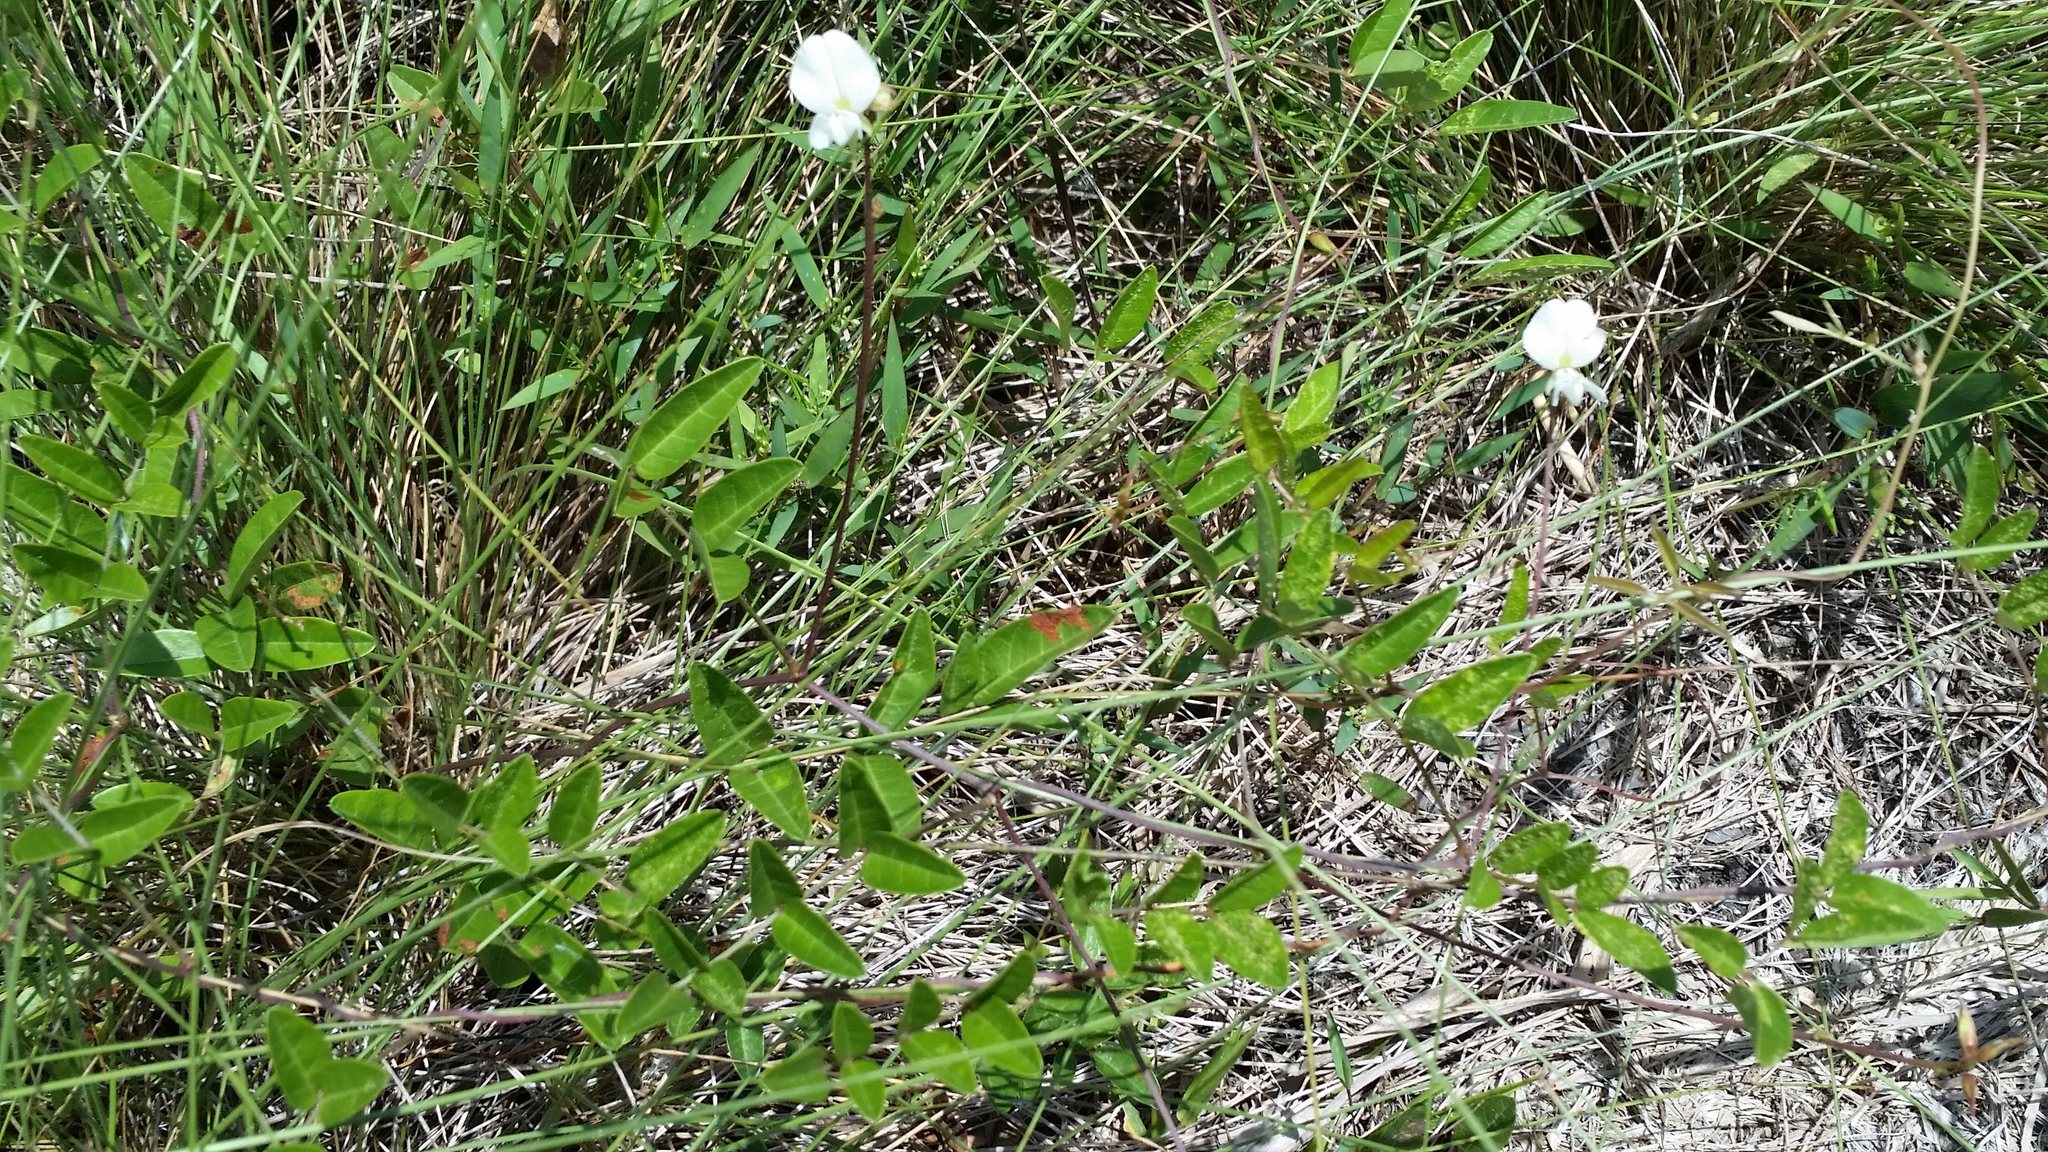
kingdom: Plantae
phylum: Tracheophyta
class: Magnoliopsida
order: Fabales
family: Fabaceae
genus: Galactia
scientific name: Galactia elliottii
